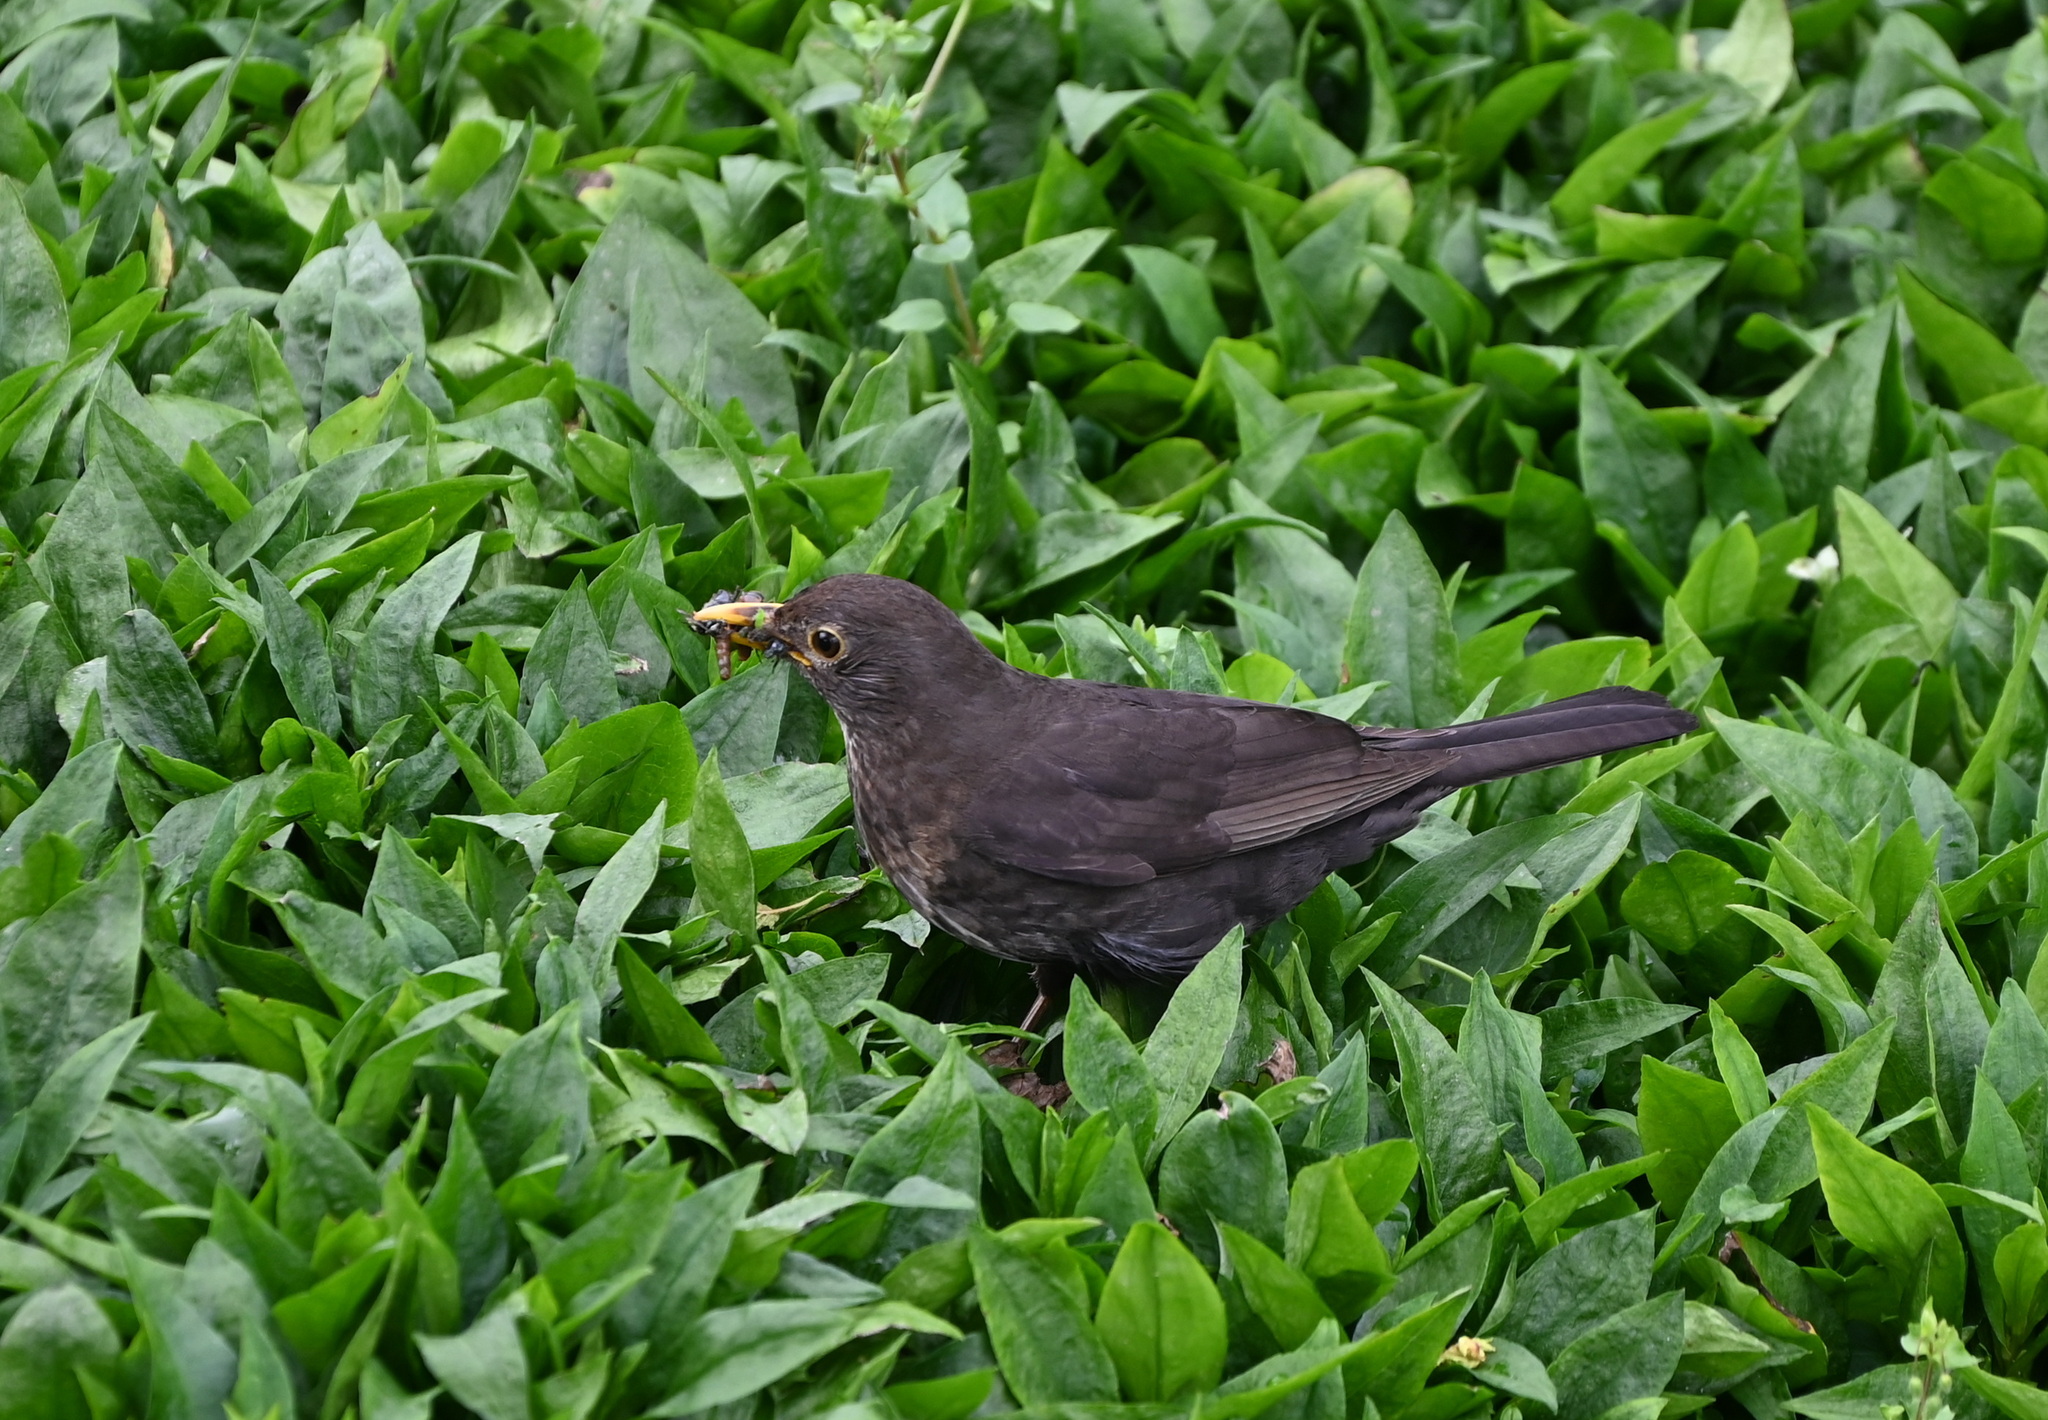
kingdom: Animalia
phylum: Chordata
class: Aves
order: Passeriformes
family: Turdidae
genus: Turdus
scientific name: Turdus merula
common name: Common blackbird
